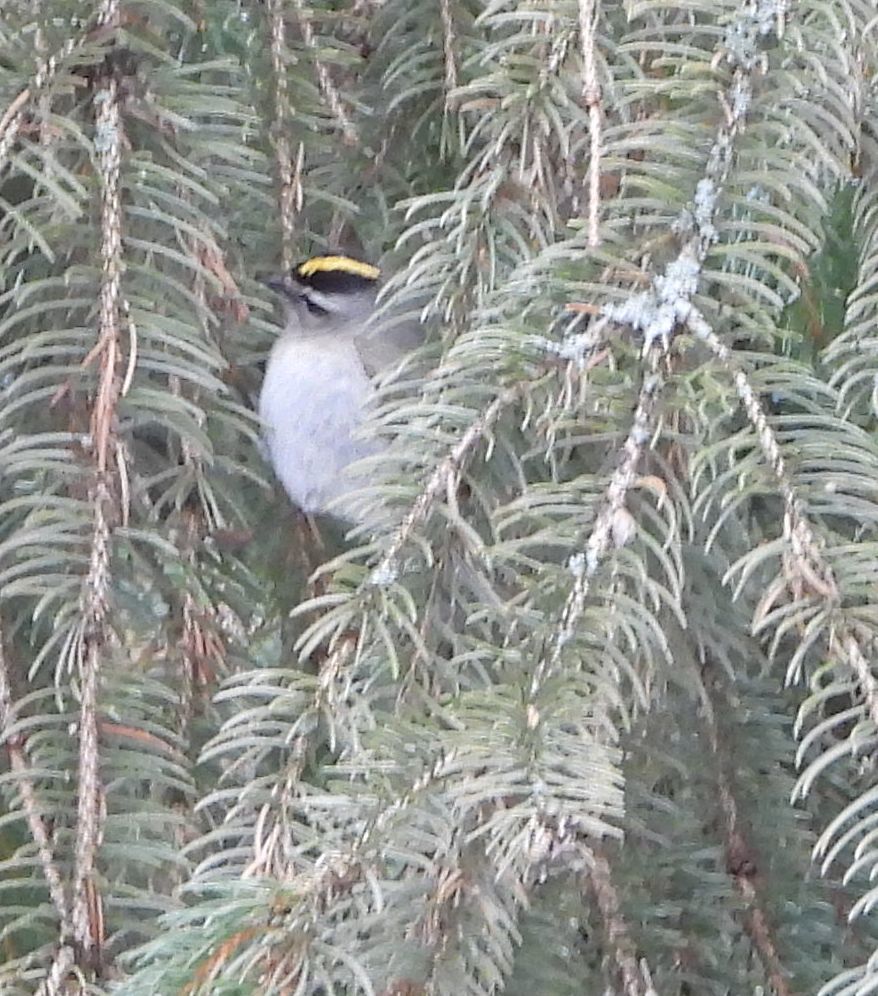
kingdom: Animalia
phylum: Chordata
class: Aves
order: Passeriformes
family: Regulidae
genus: Regulus
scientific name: Regulus satrapa
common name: Golden-crowned kinglet
